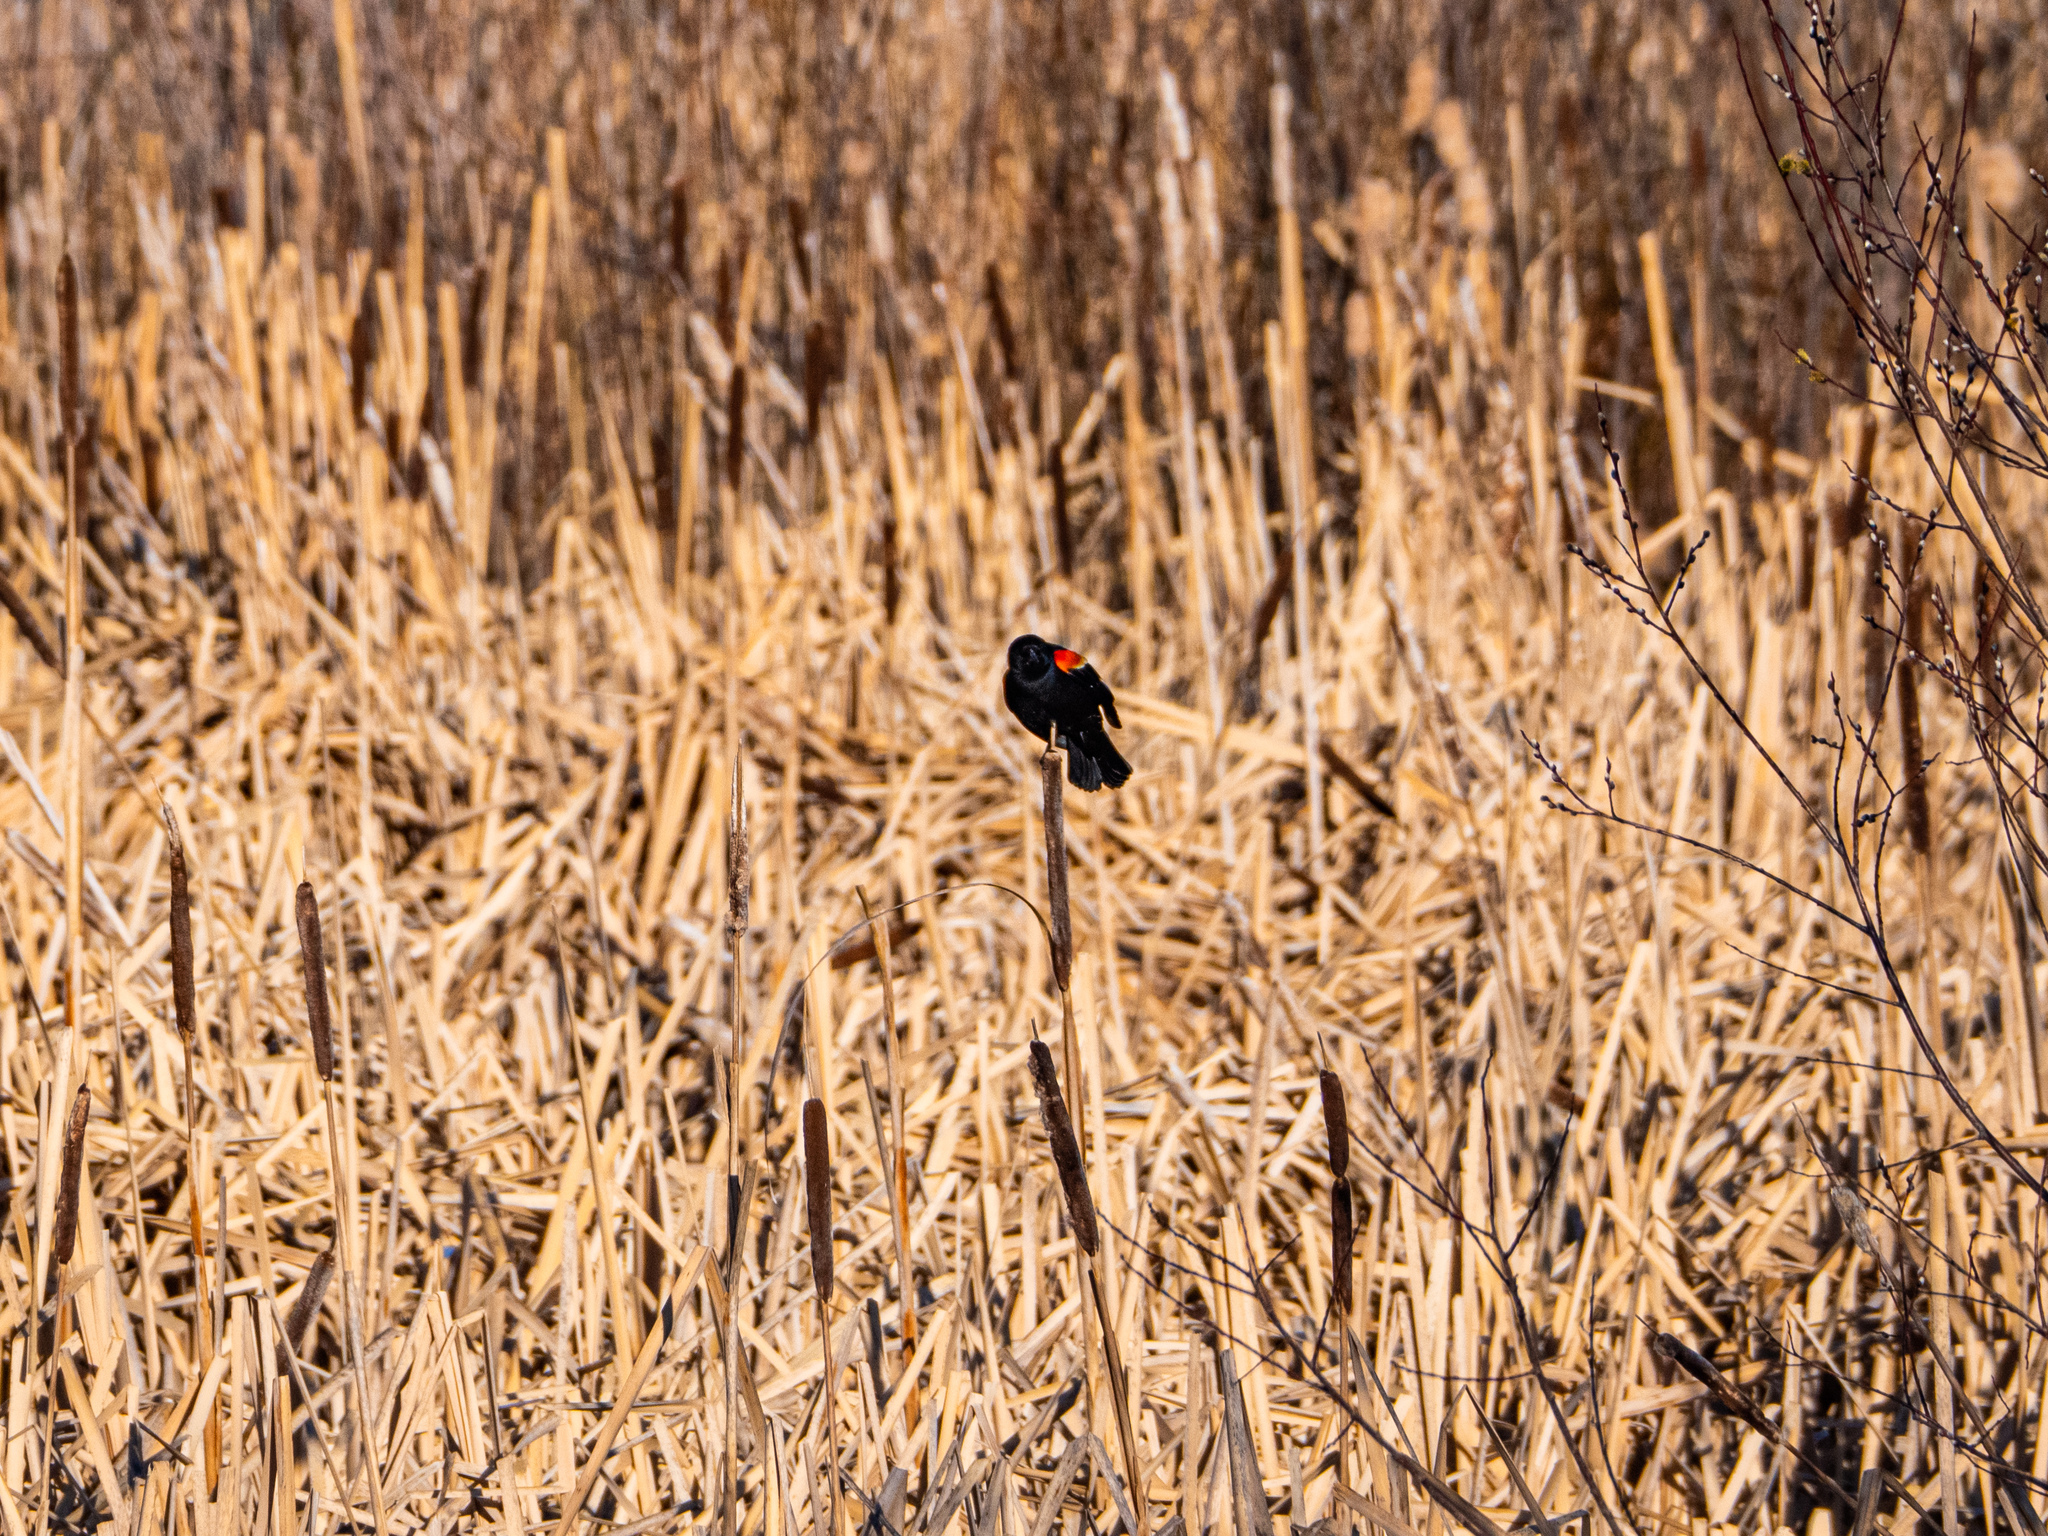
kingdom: Animalia
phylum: Chordata
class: Aves
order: Passeriformes
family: Icteridae
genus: Agelaius
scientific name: Agelaius phoeniceus
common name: Red-winged blackbird
